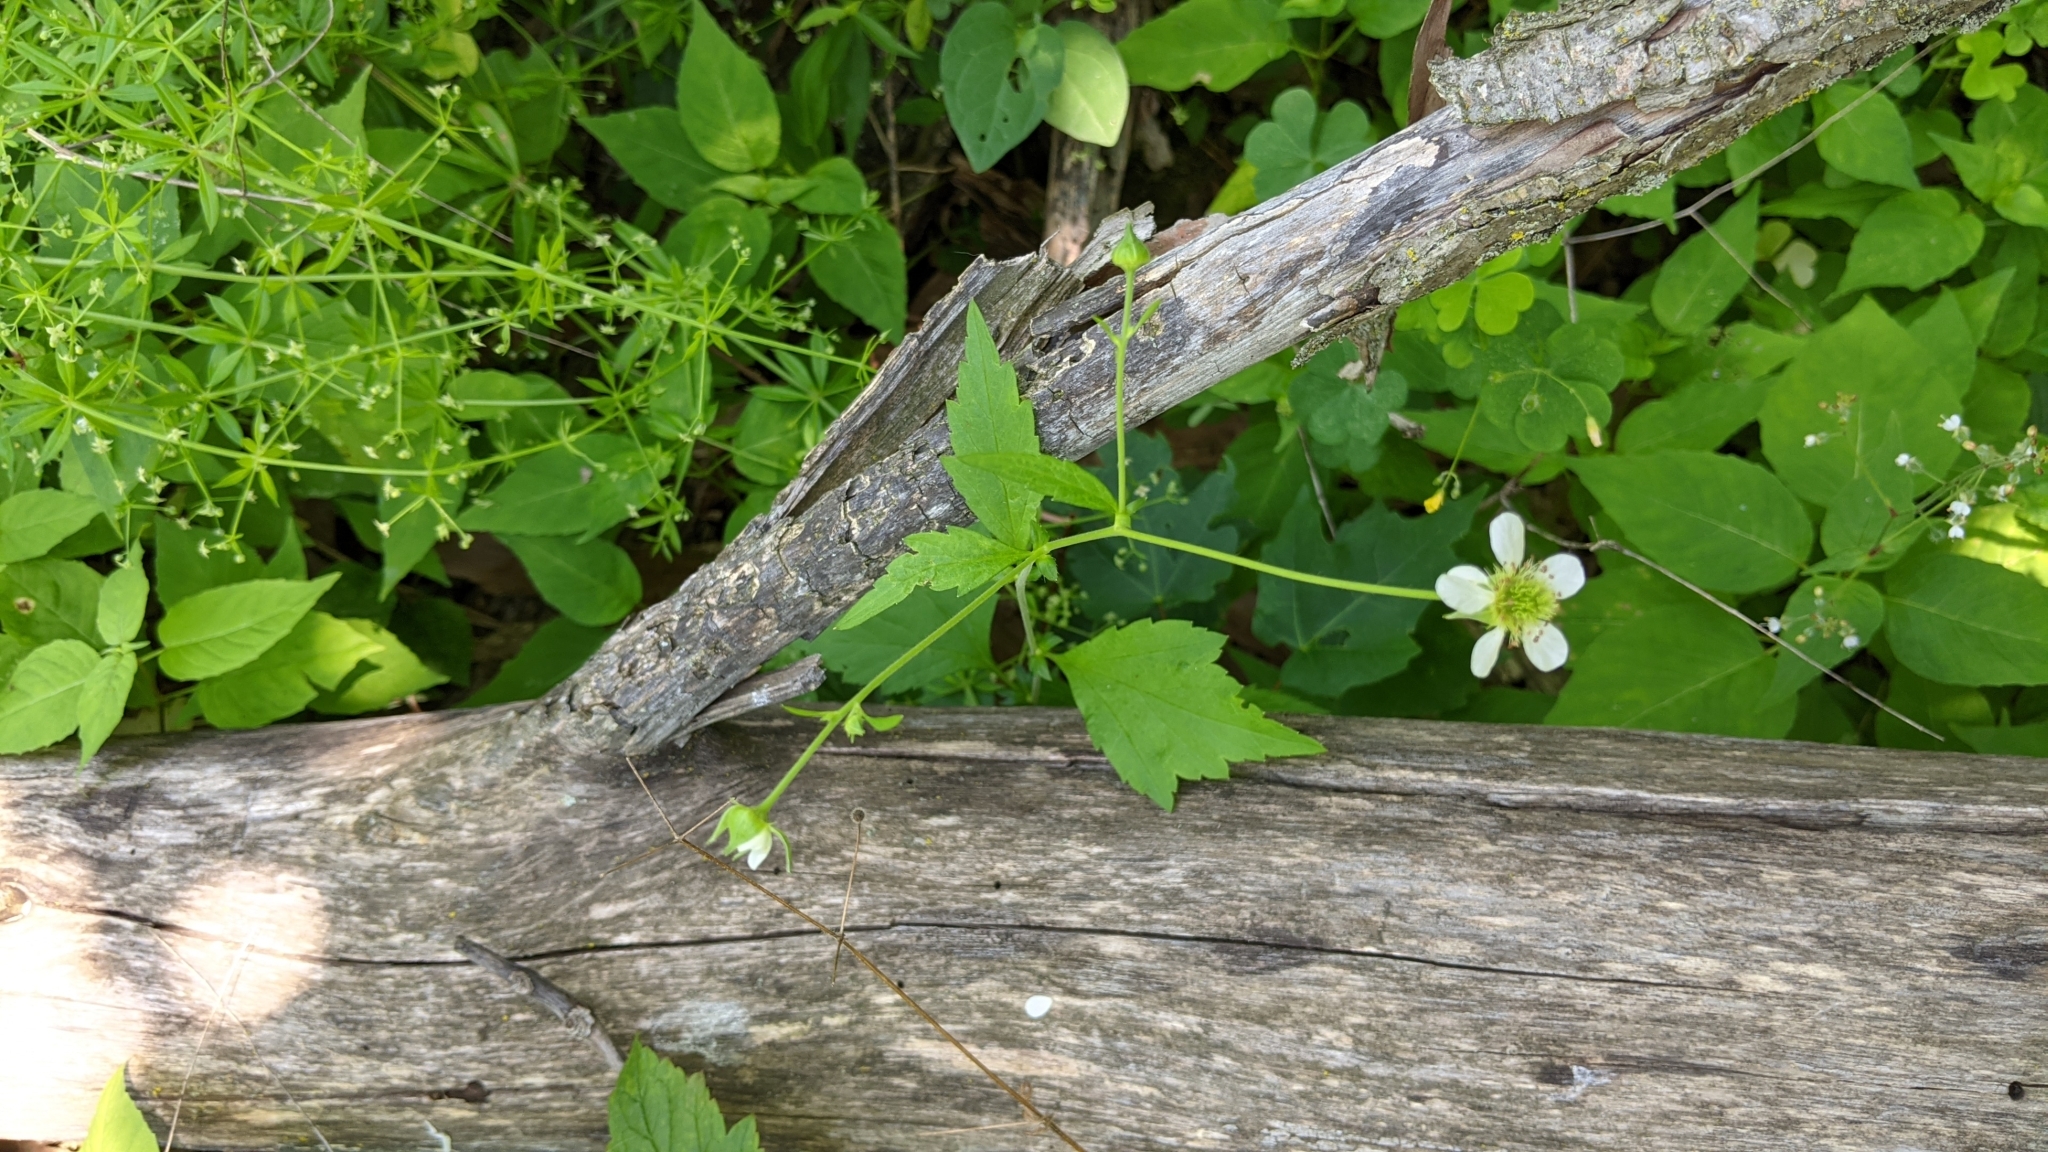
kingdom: Plantae
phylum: Tracheophyta
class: Magnoliopsida
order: Rosales
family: Rosaceae
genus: Geum
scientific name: Geum canadense
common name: White avens
